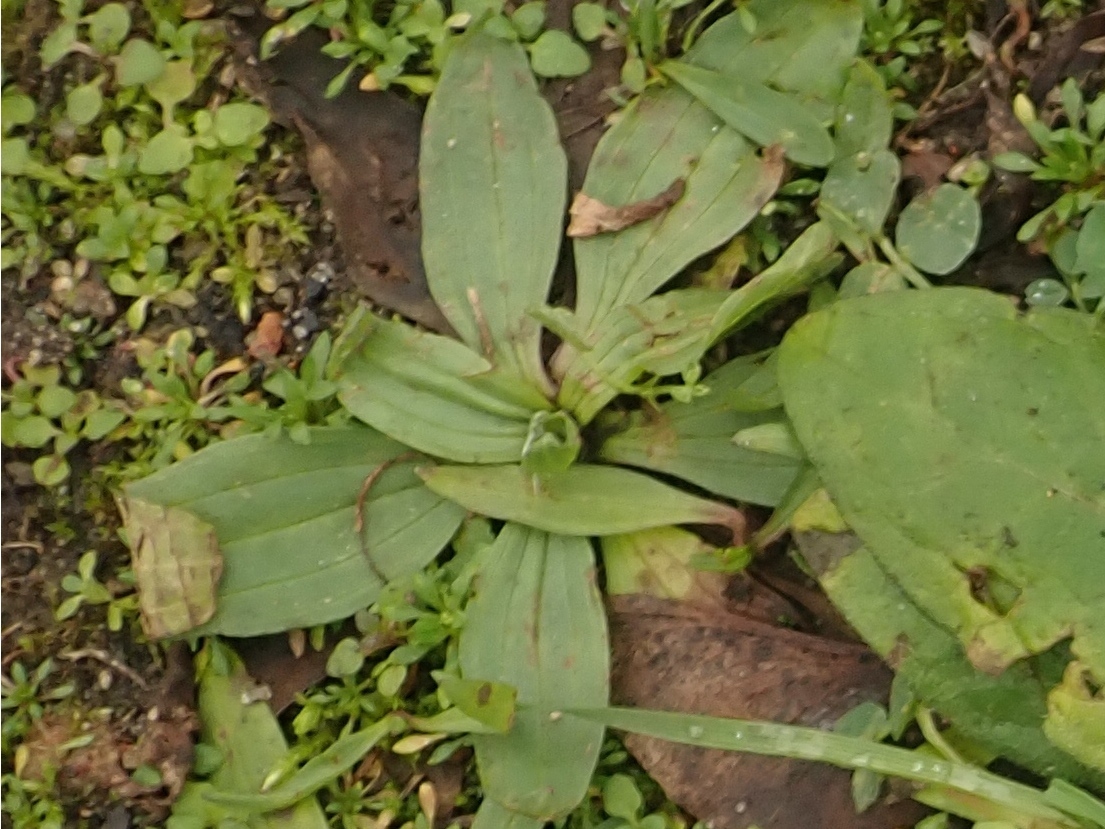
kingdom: Plantae
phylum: Tracheophyta
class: Magnoliopsida
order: Lamiales
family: Plantaginaceae
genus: Plantago
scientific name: Plantago lanceolata
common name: Ribwort plantain
